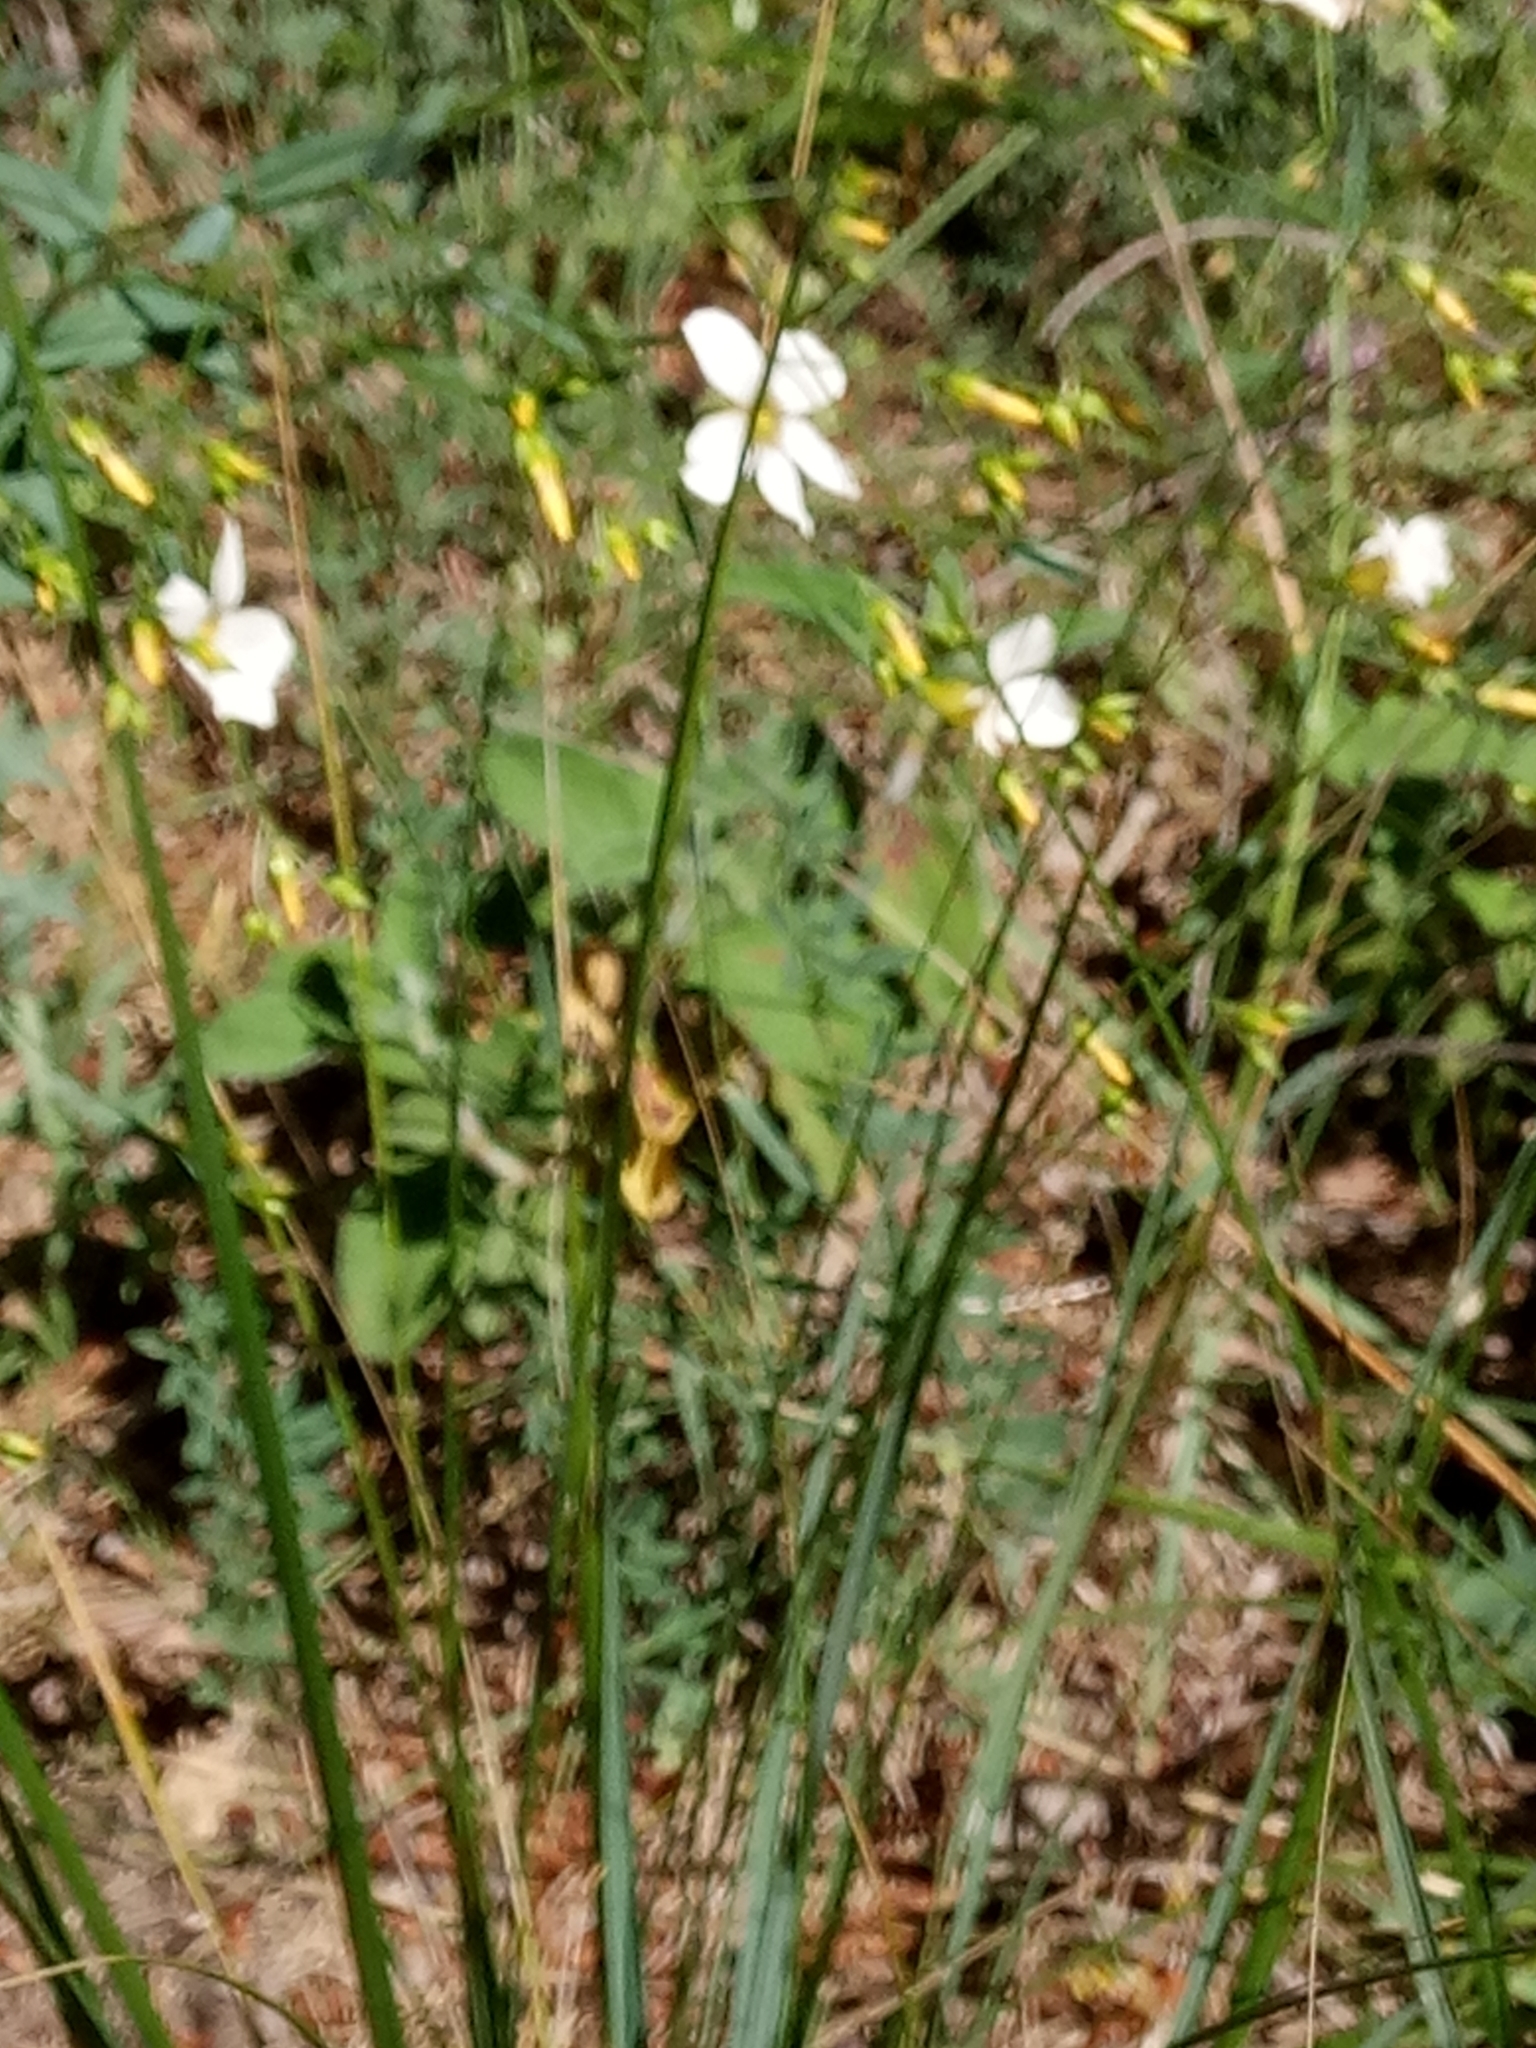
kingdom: Plantae
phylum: Tracheophyta
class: Magnoliopsida
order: Malpighiales
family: Linaceae
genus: Linum
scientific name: Linum corymbiferum
